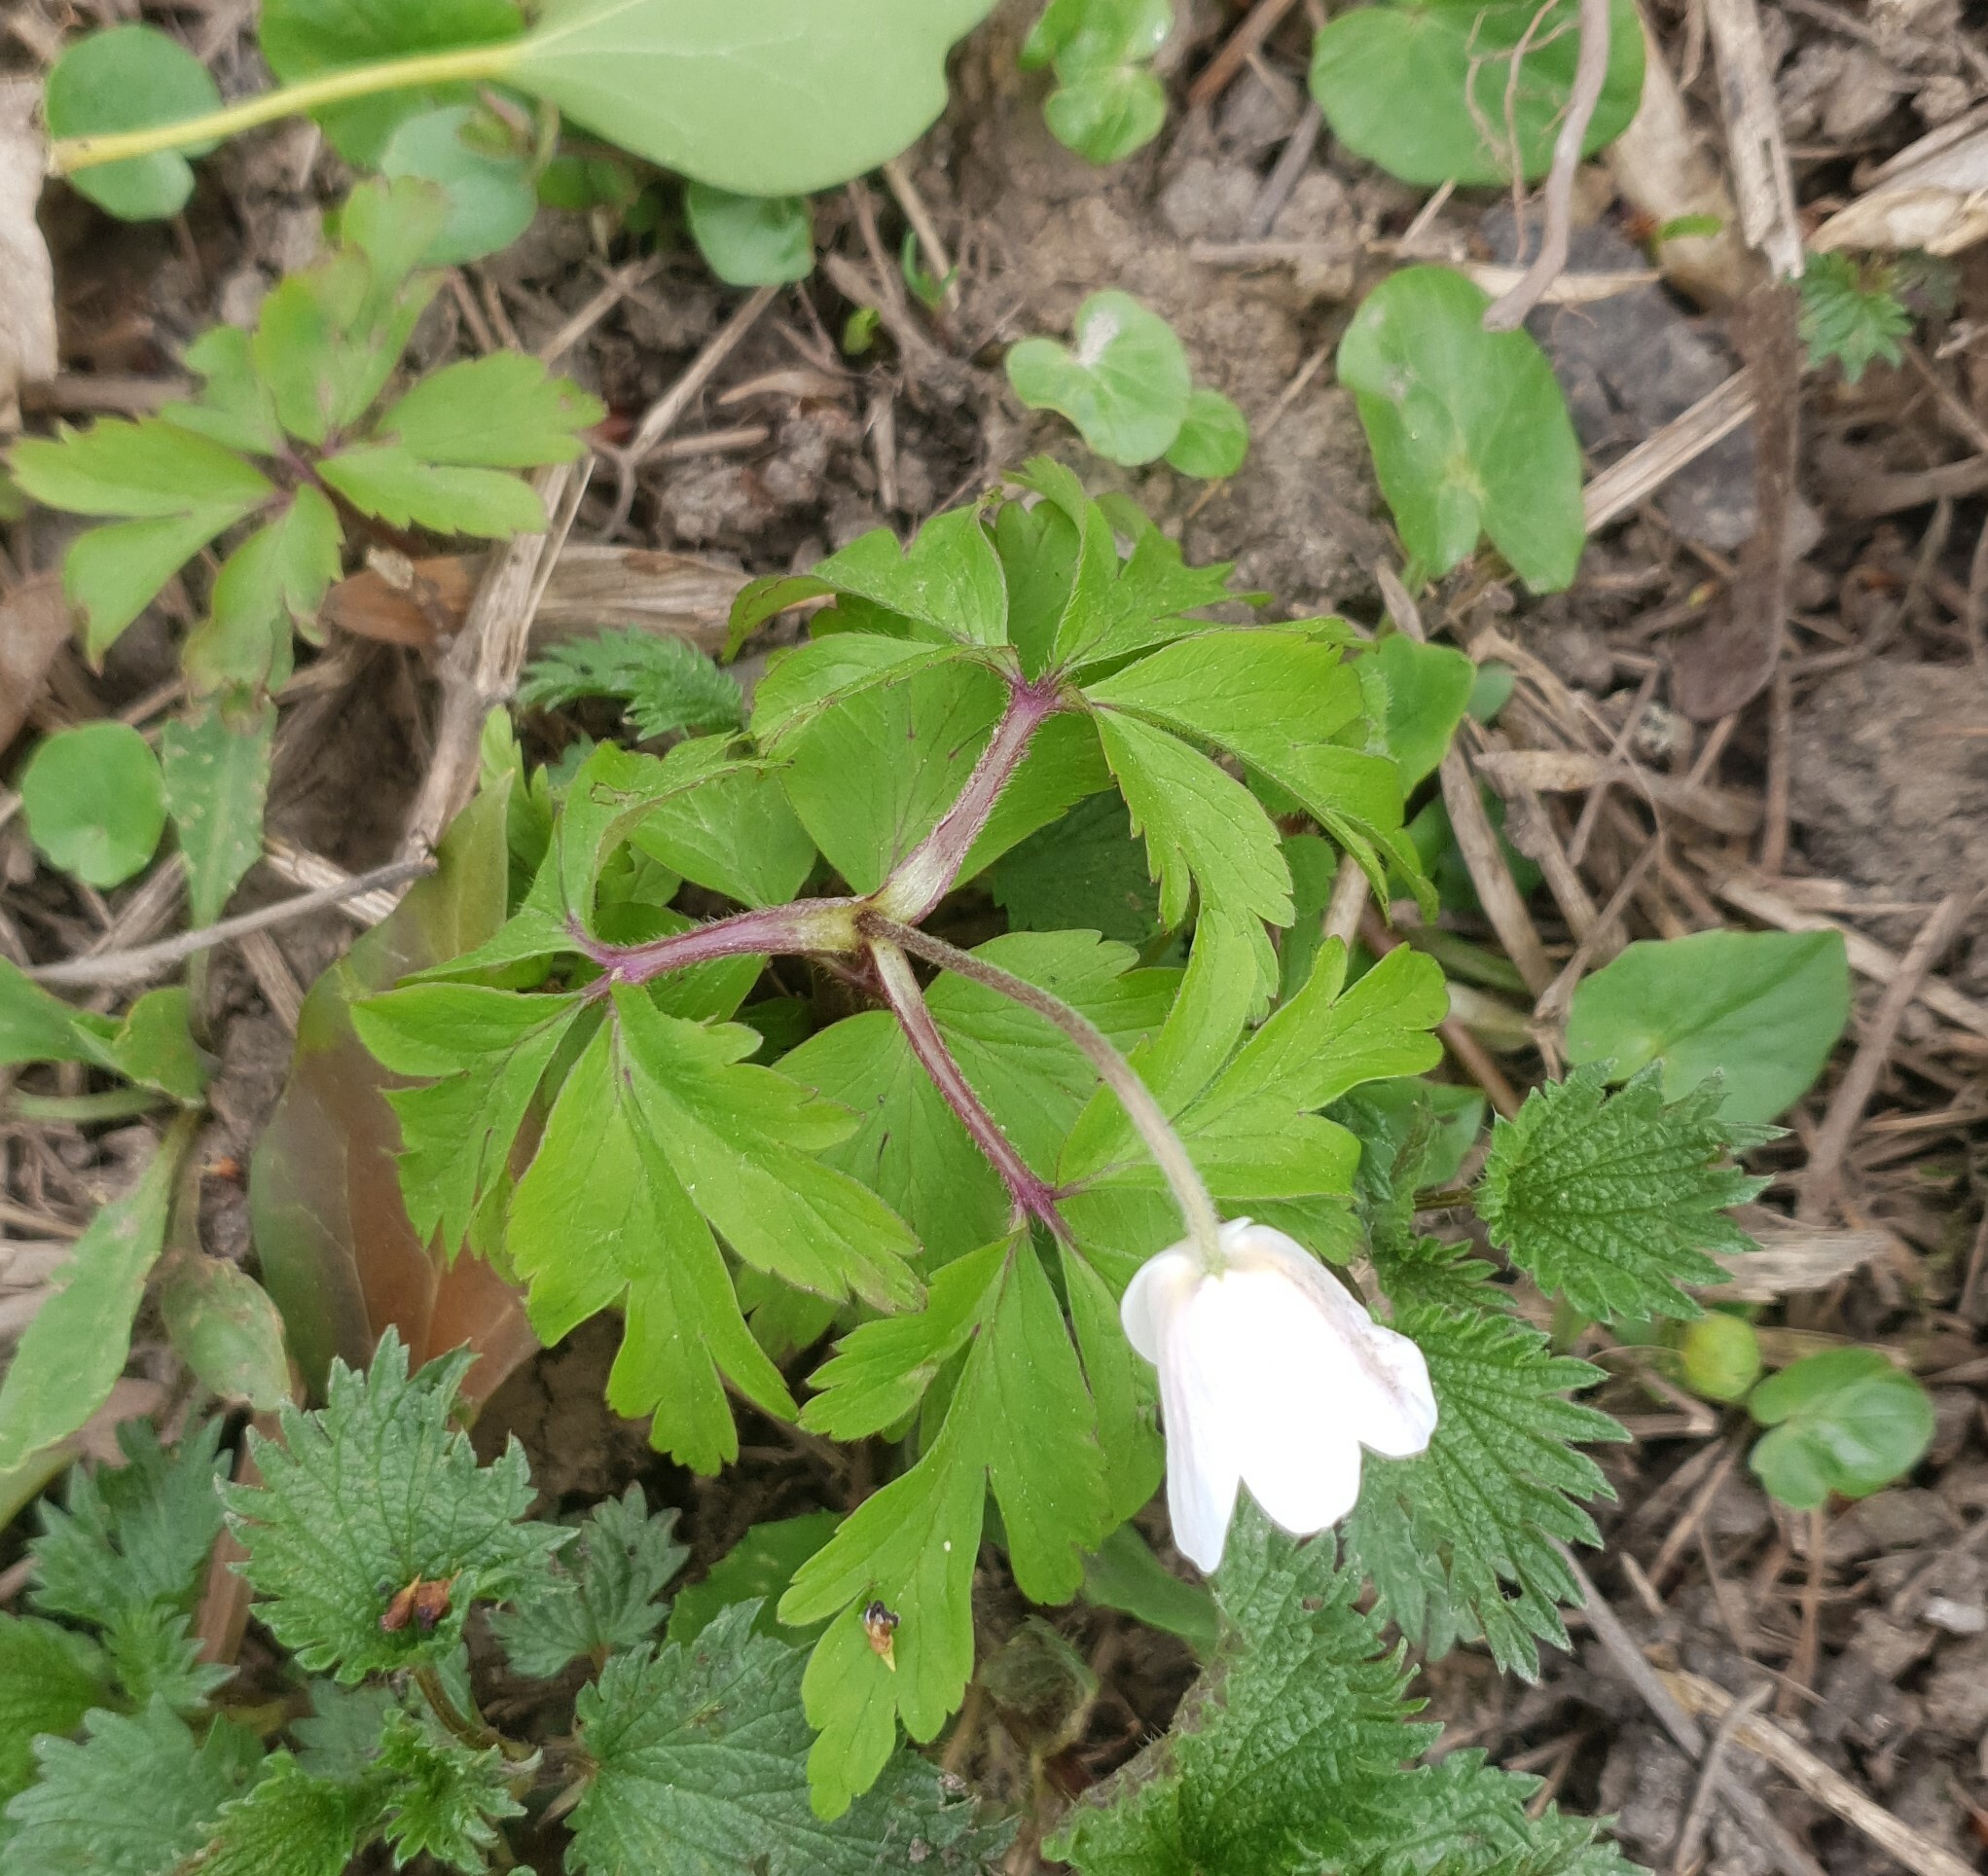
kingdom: Plantae
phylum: Tracheophyta
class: Magnoliopsida
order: Ranunculales
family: Ranunculaceae
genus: Anemone
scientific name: Anemone nemorosa
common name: Wood anemone
